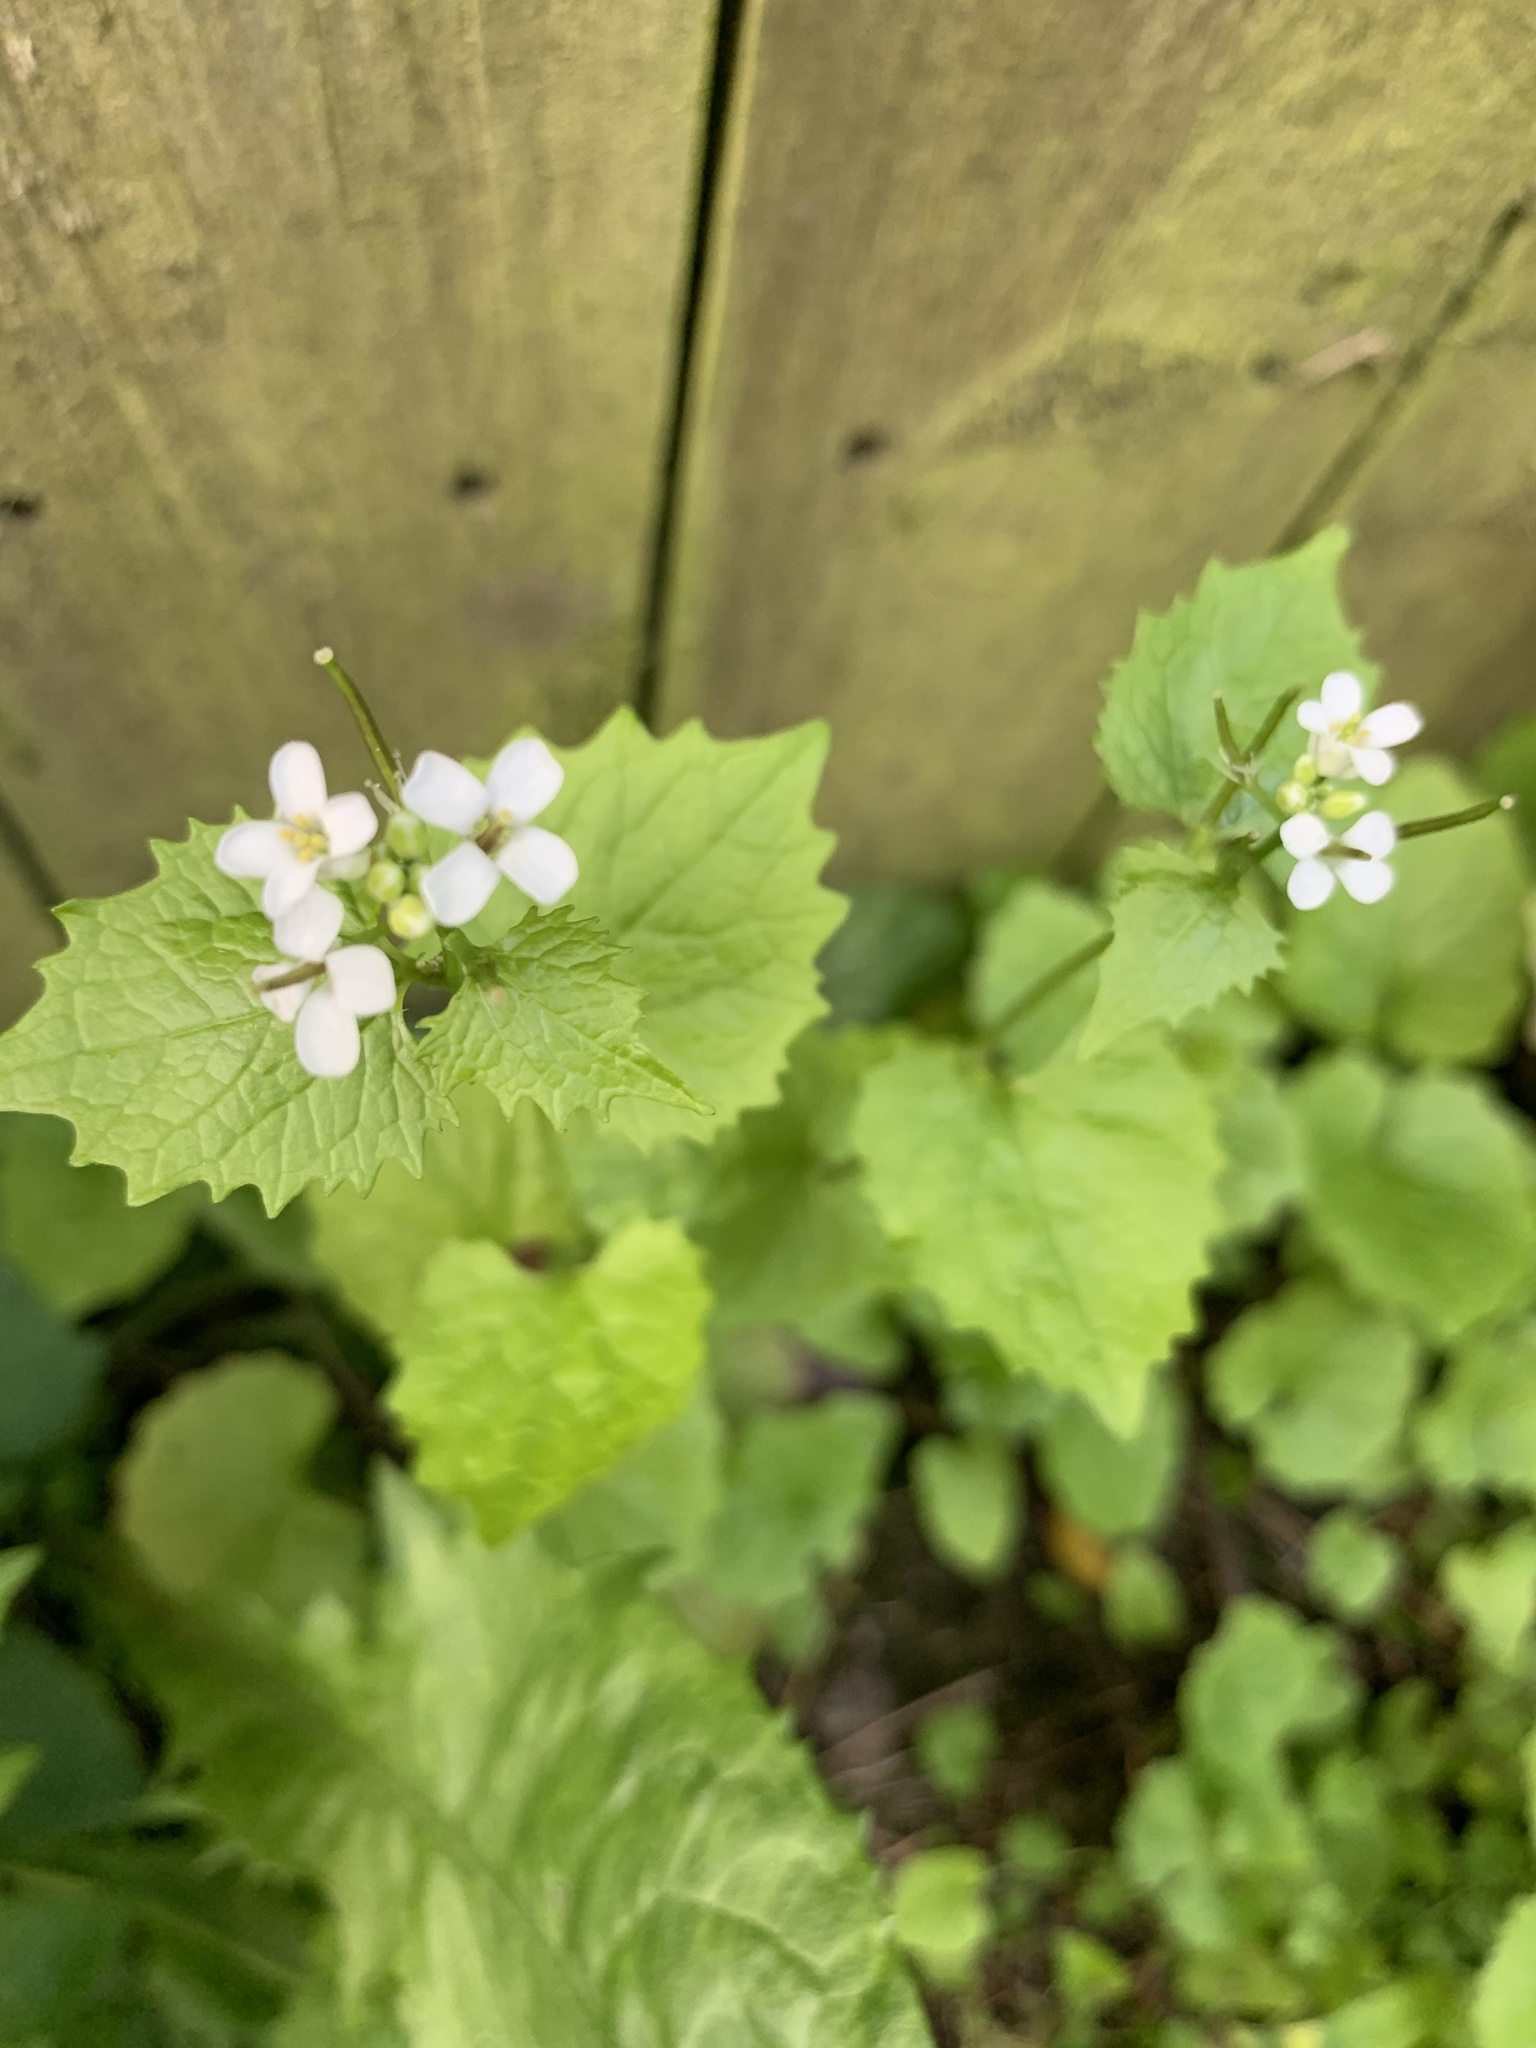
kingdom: Plantae
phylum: Tracheophyta
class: Magnoliopsida
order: Brassicales
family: Brassicaceae
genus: Alliaria
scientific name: Alliaria petiolata
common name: Garlic mustard
